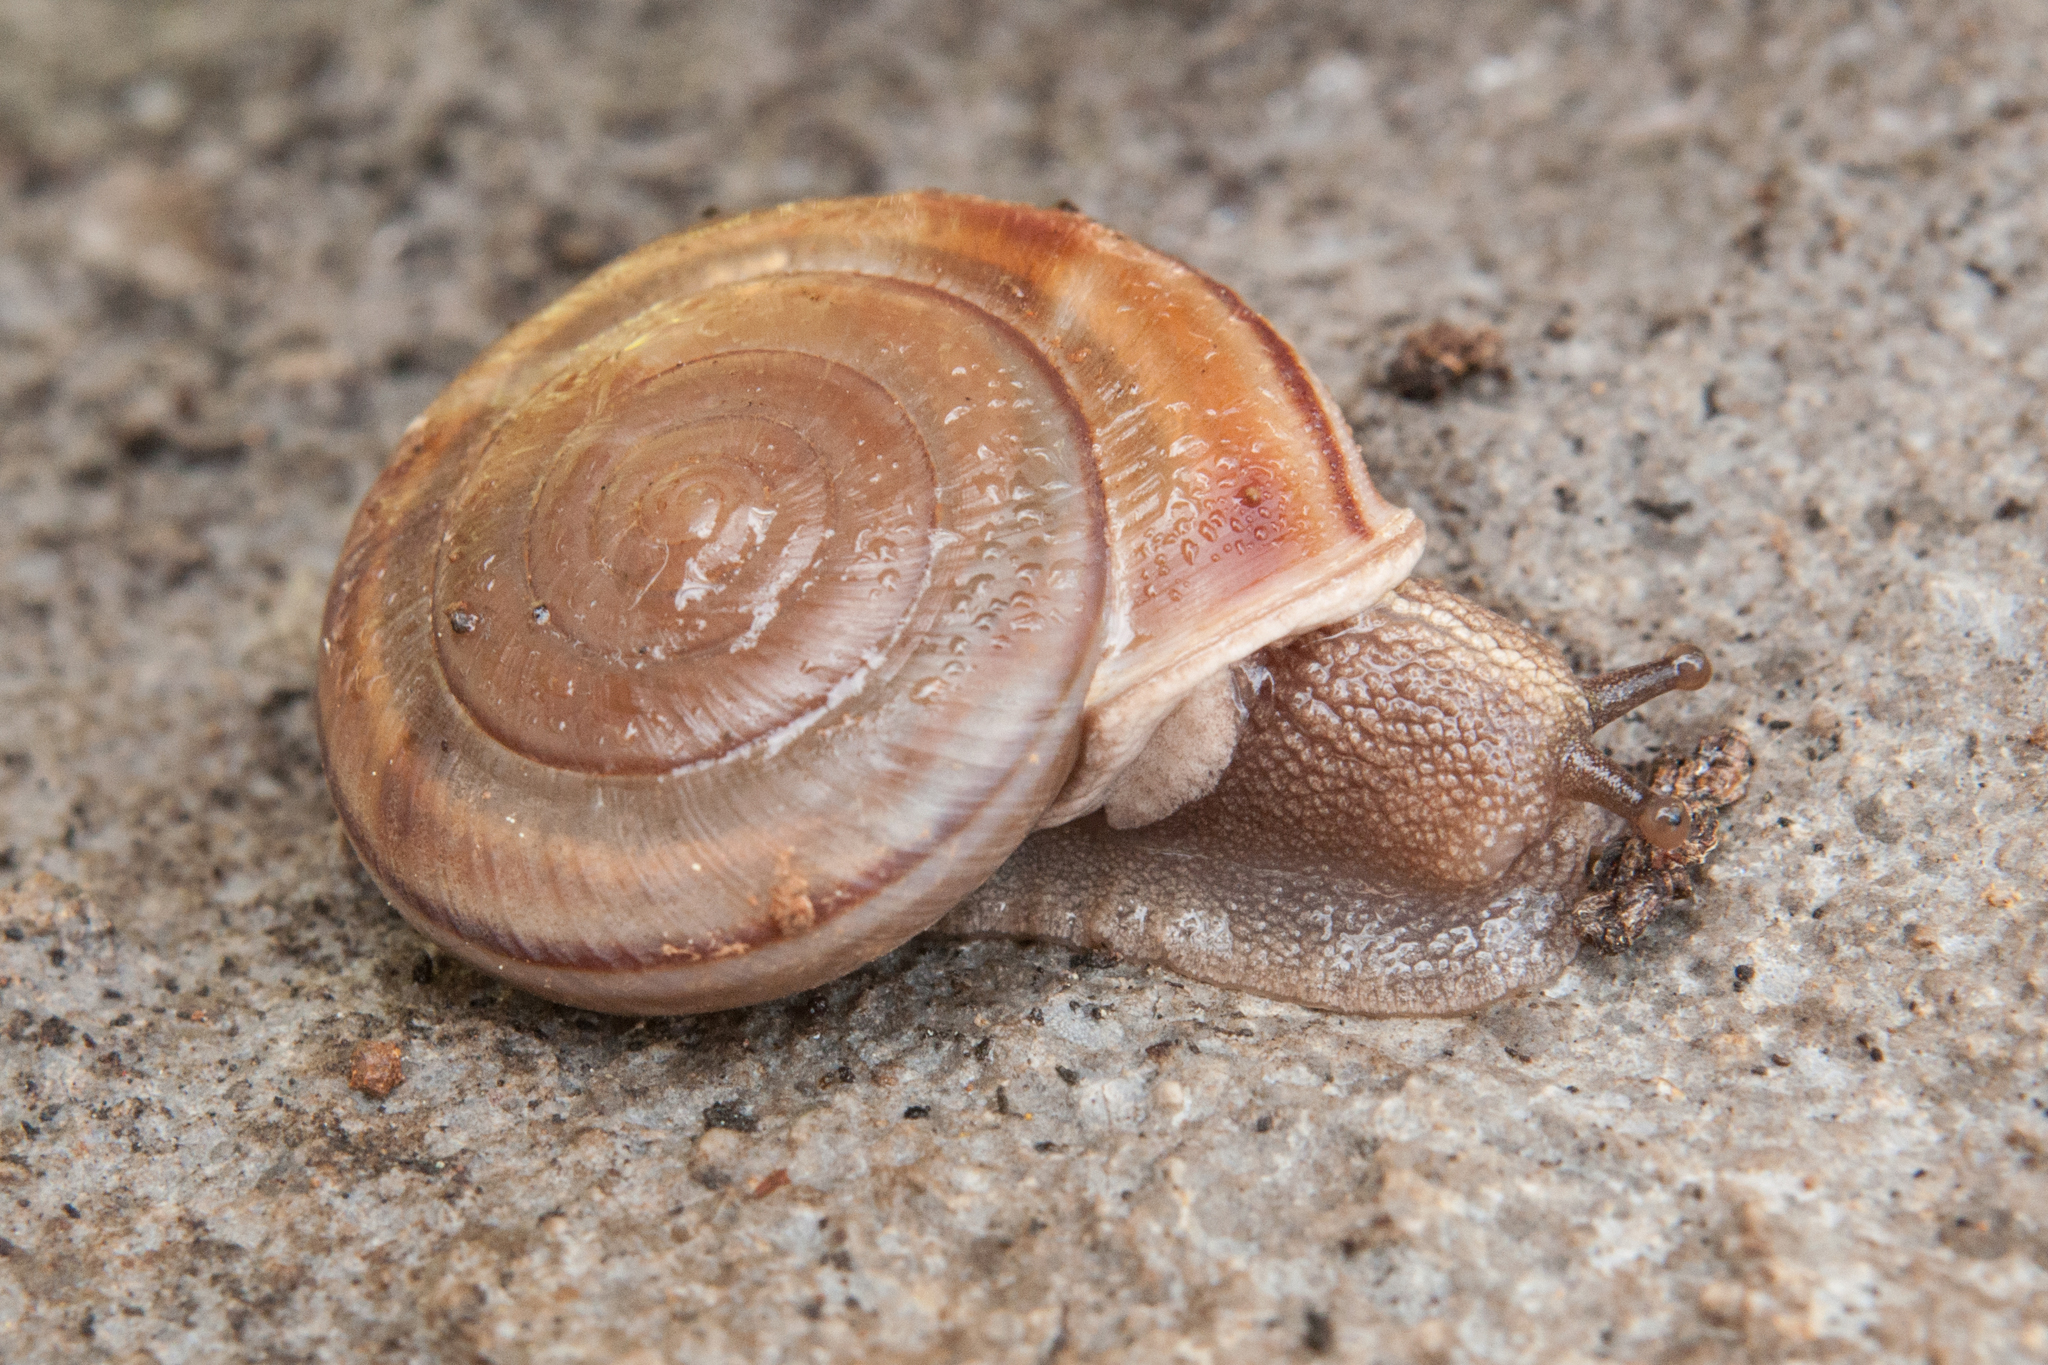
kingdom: Animalia
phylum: Mollusca
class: Gastropoda
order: Stylommatophora
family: Xanthonychidae
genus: Monadenia
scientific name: Monadenia troglodytes
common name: Shasta sideband
